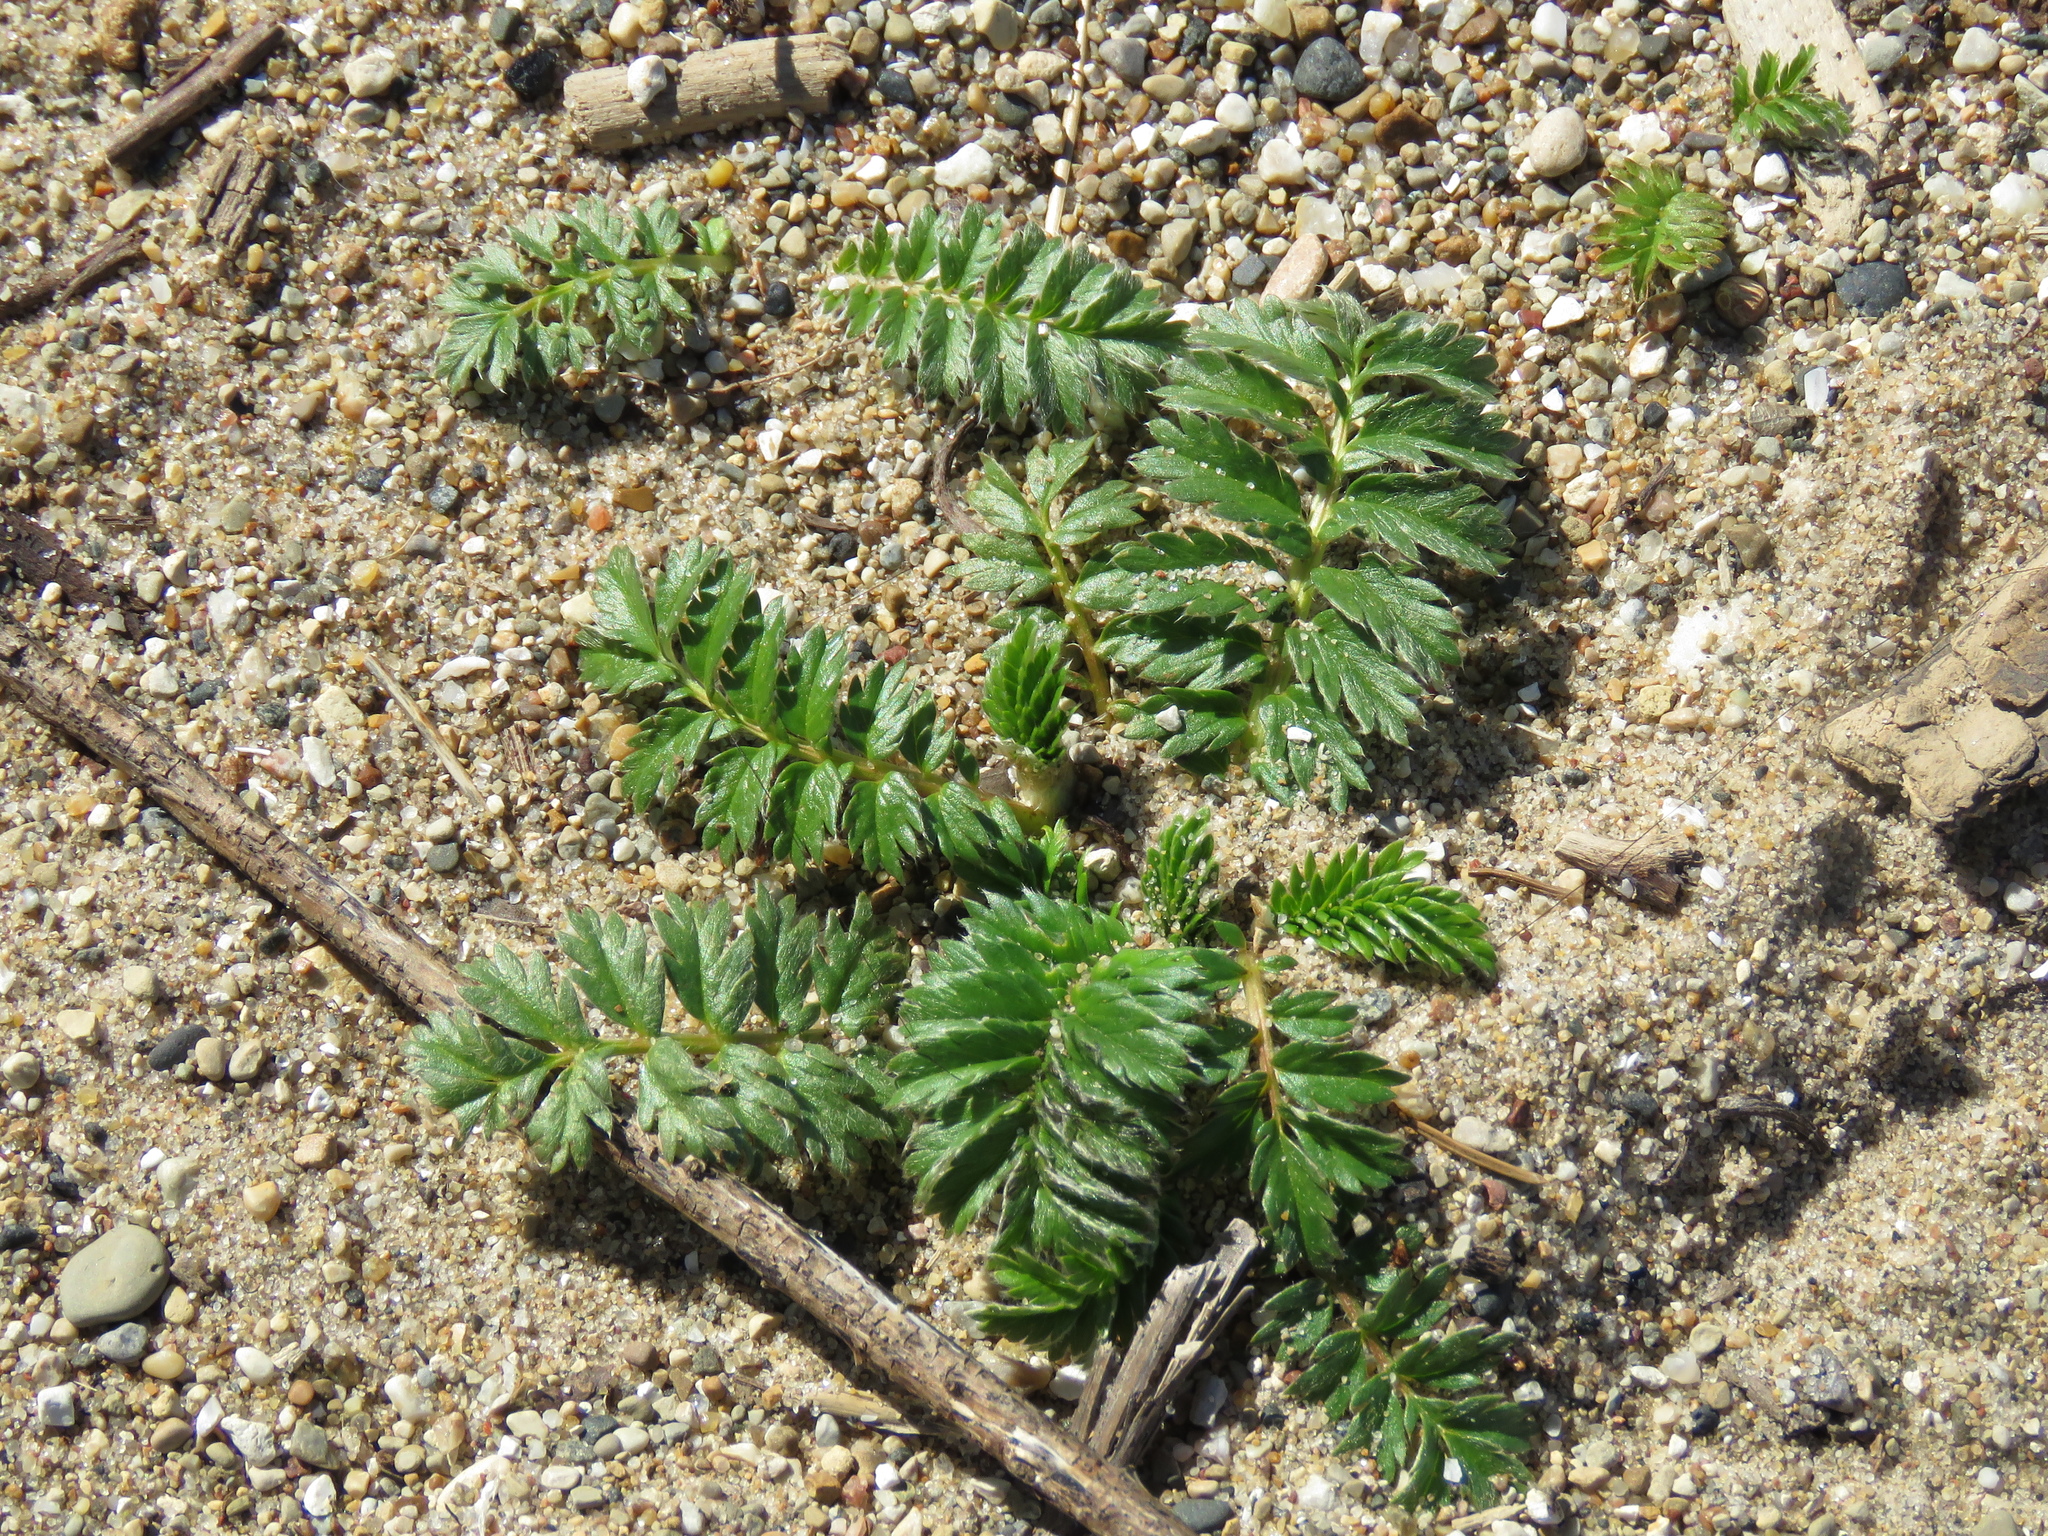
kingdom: Plantae
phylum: Tracheophyta
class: Magnoliopsida
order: Rosales
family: Rosaceae
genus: Argentina
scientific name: Argentina anserina
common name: Common silverweed
